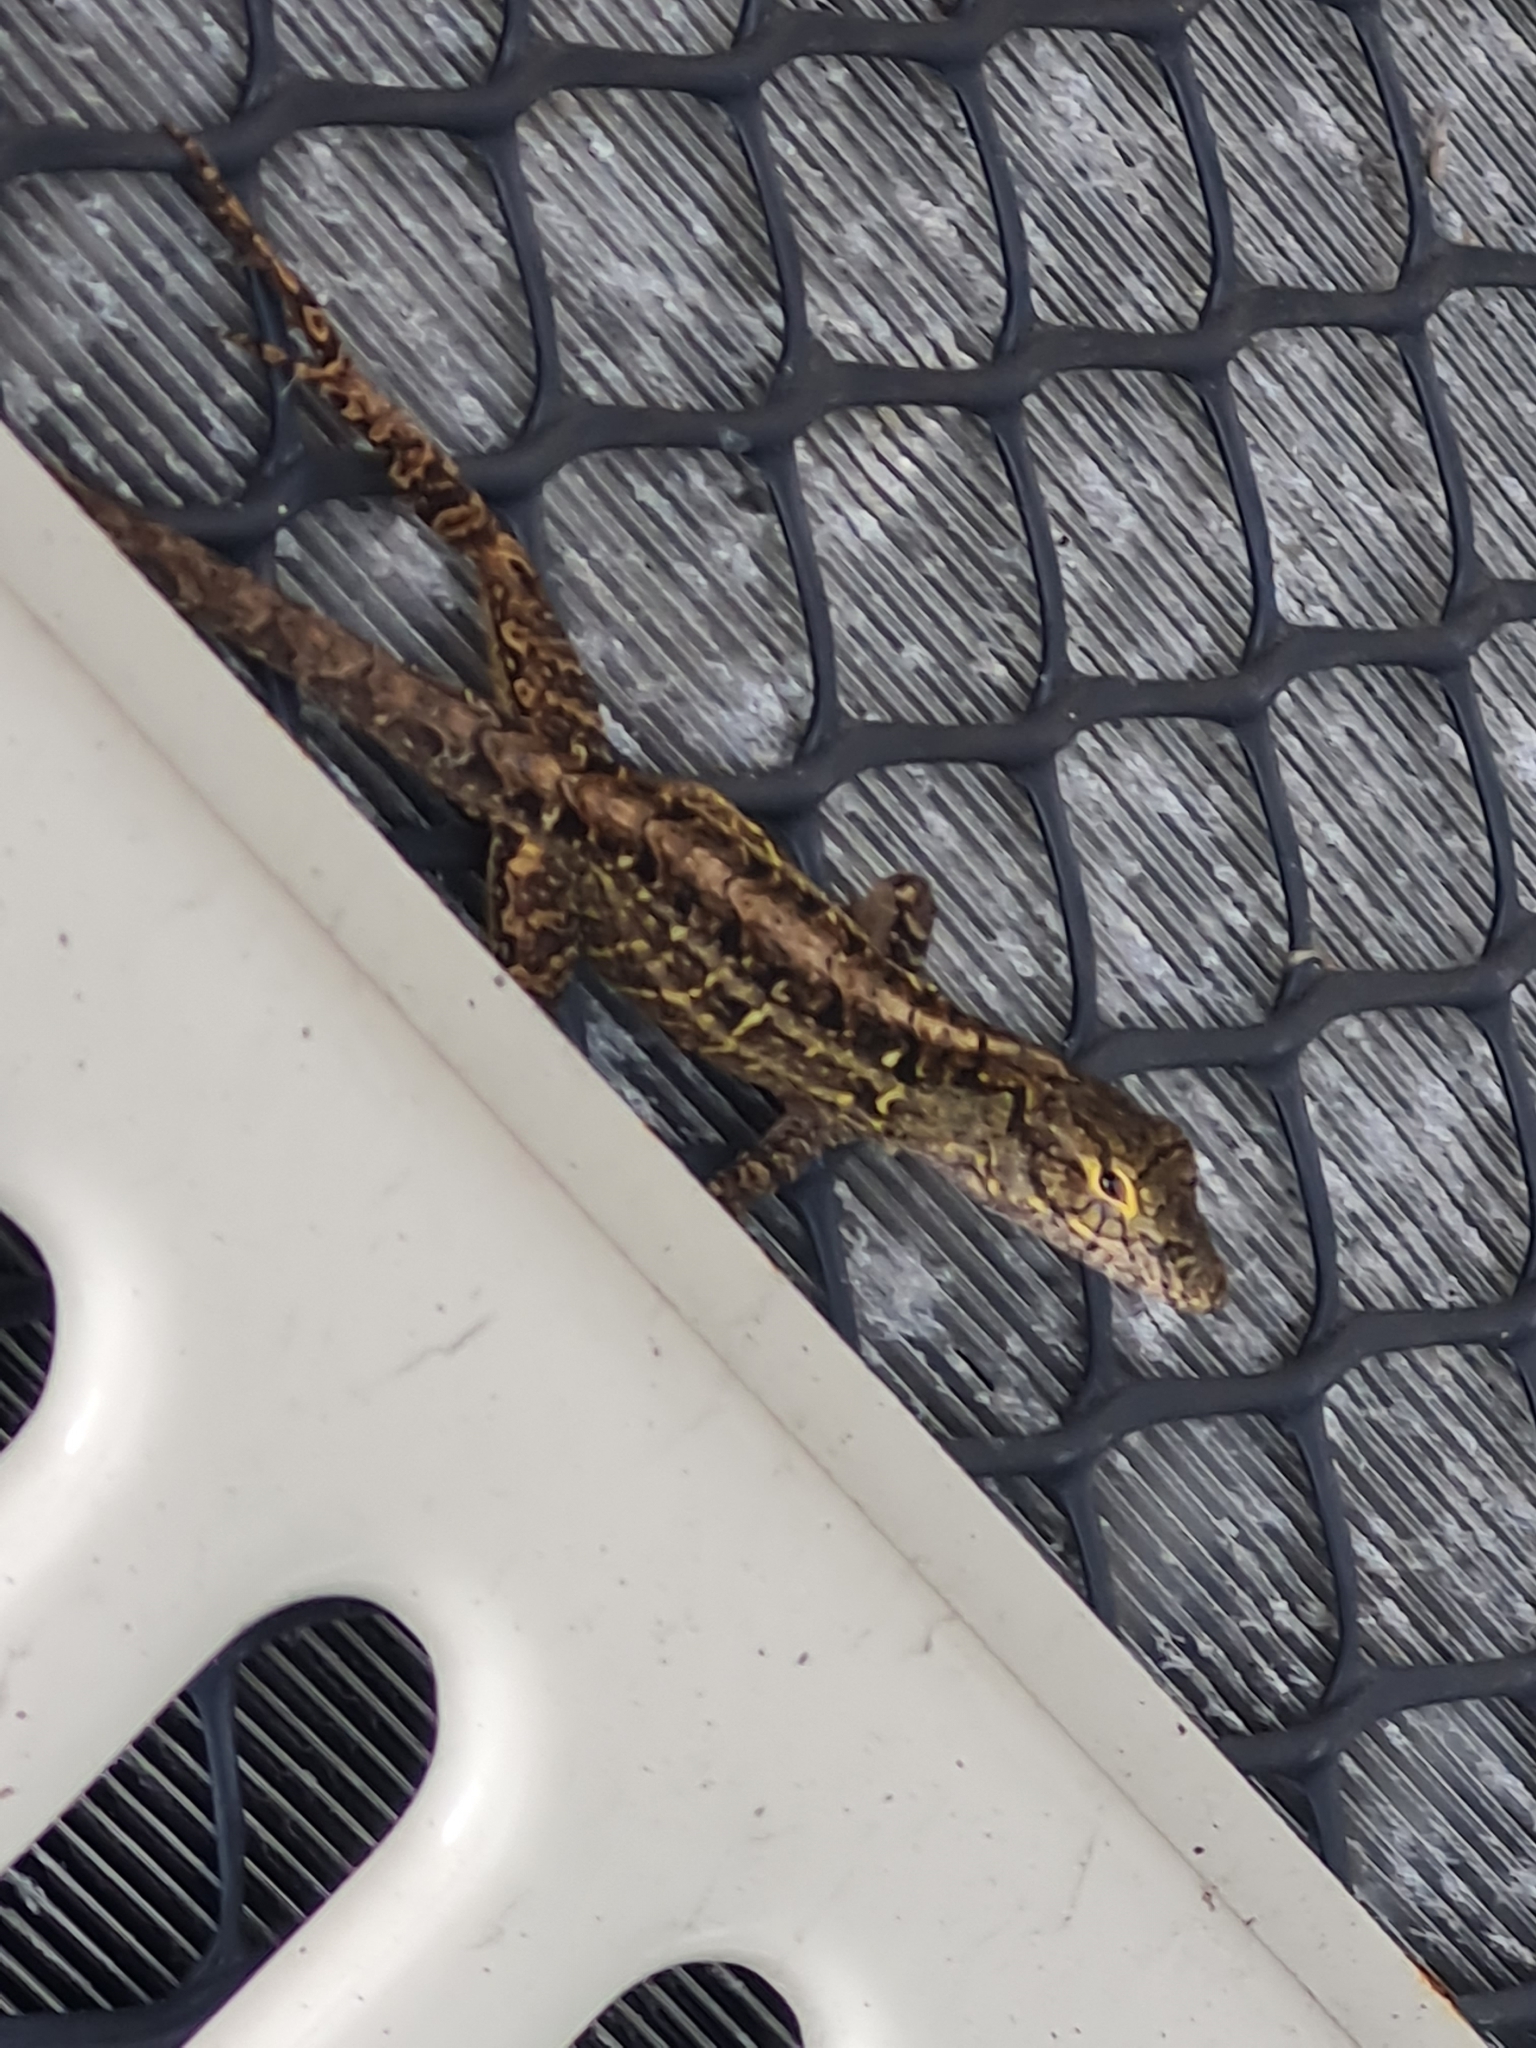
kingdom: Animalia
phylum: Chordata
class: Squamata
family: Dactyloidae
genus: Anolis
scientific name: Anolis sagrei
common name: Brown anole
